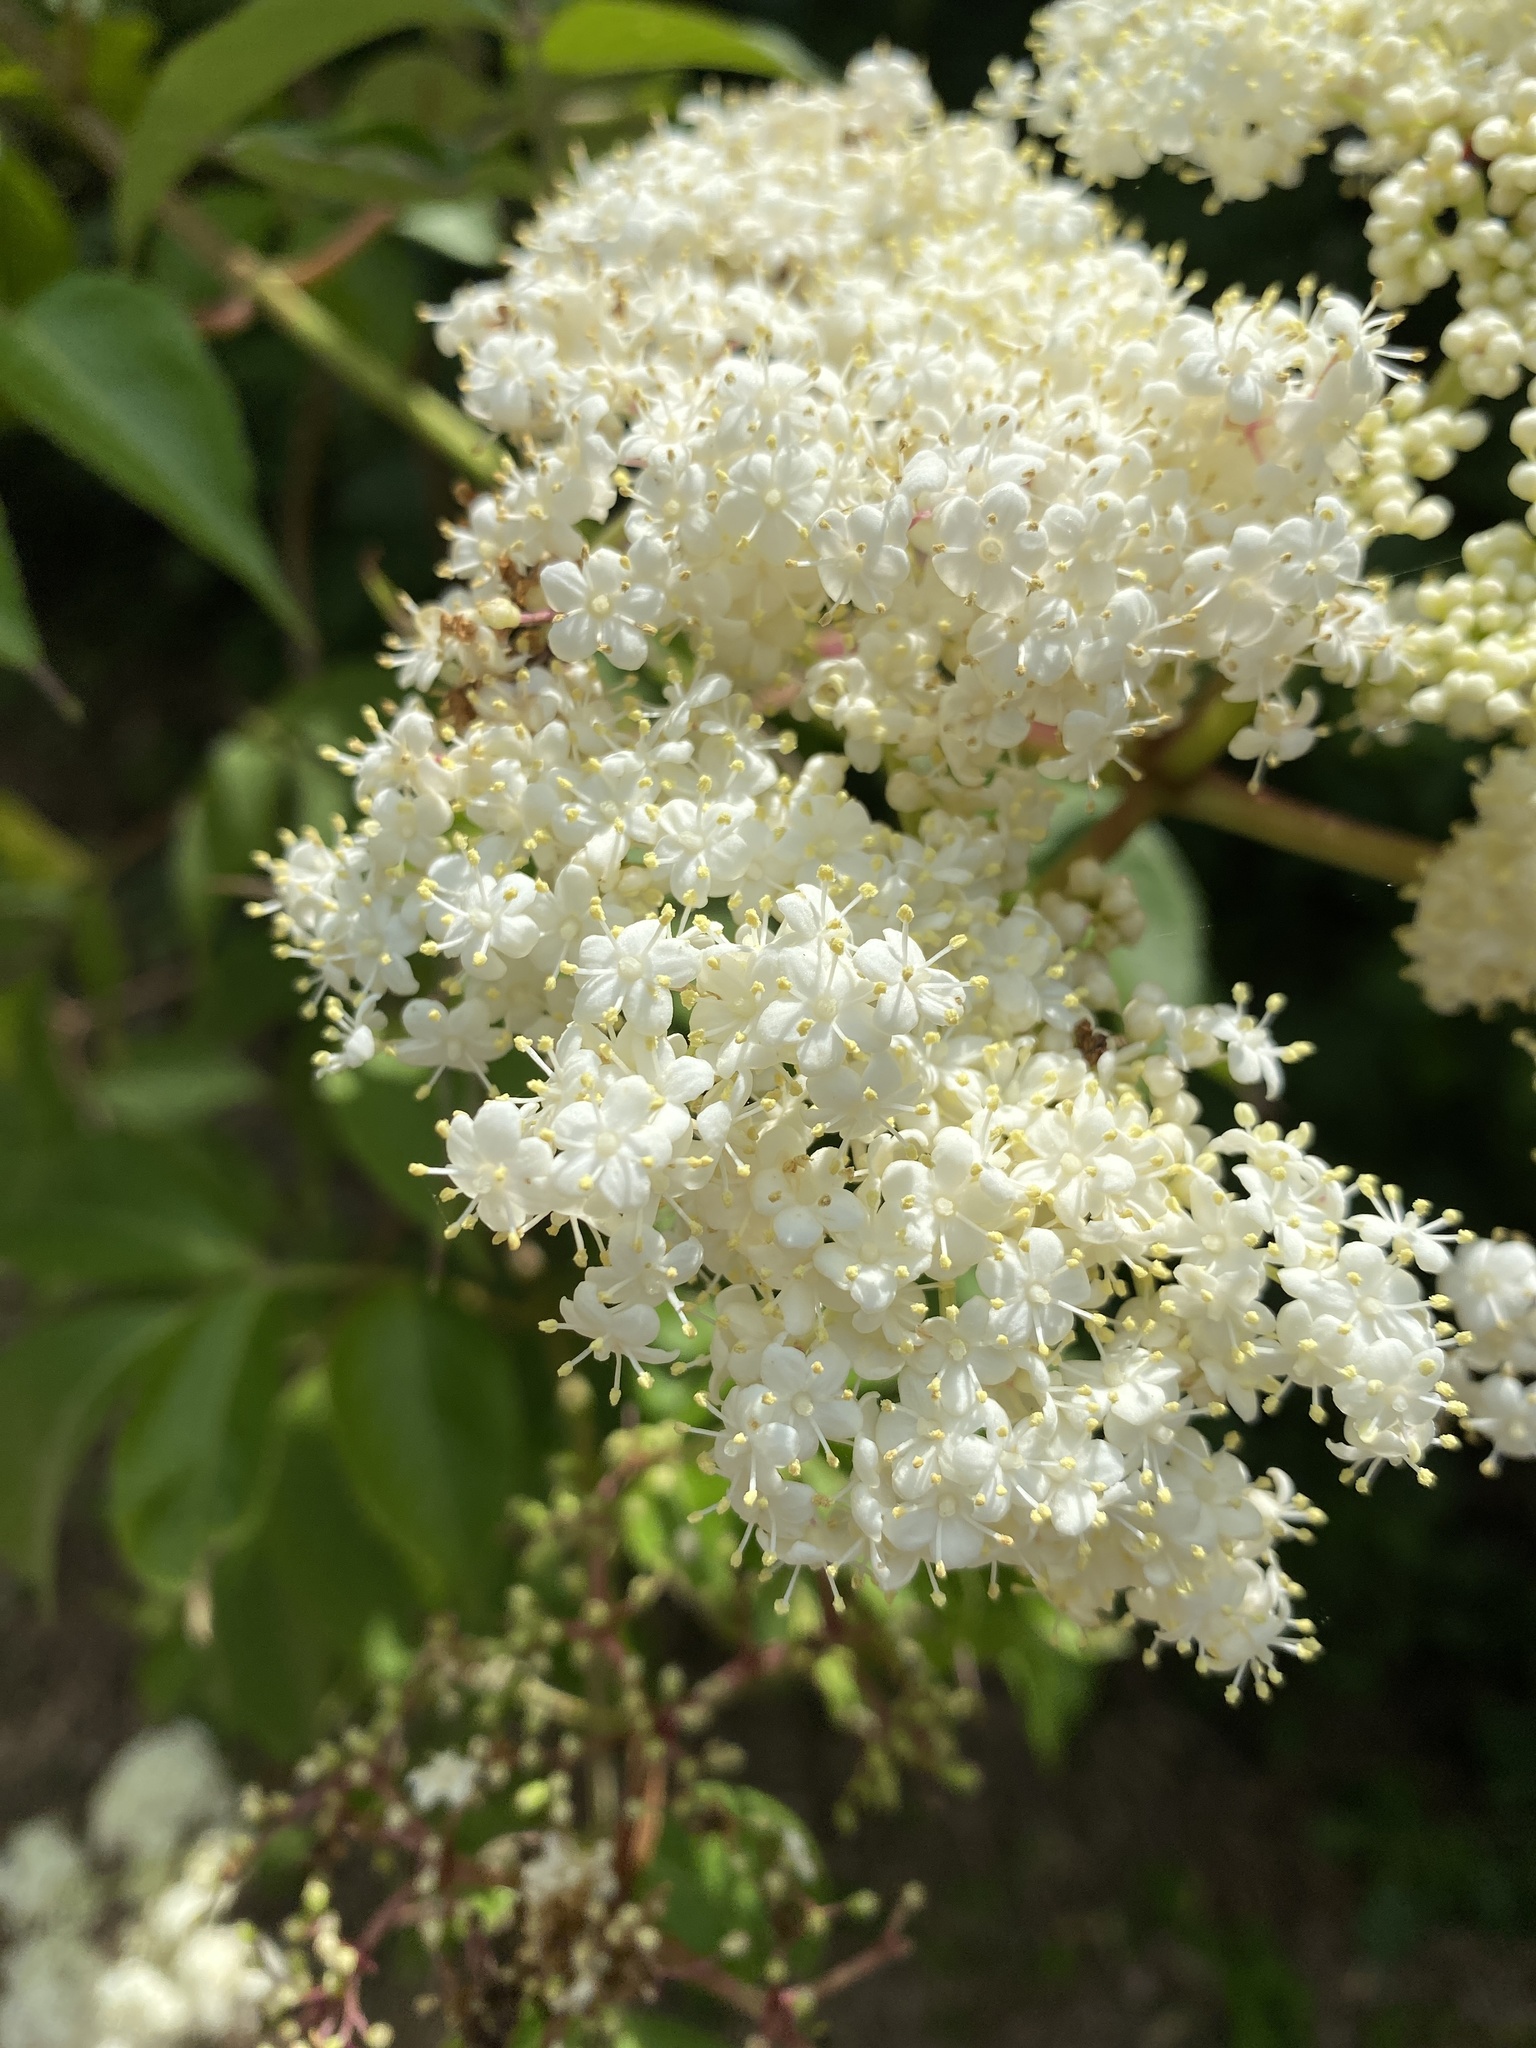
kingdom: Plantae
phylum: Tracheophyta
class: Magnoliopsida
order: Dipsacales
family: Viburnaceae
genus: Sambucus
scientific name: Sambucus canadensis
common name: American elder
